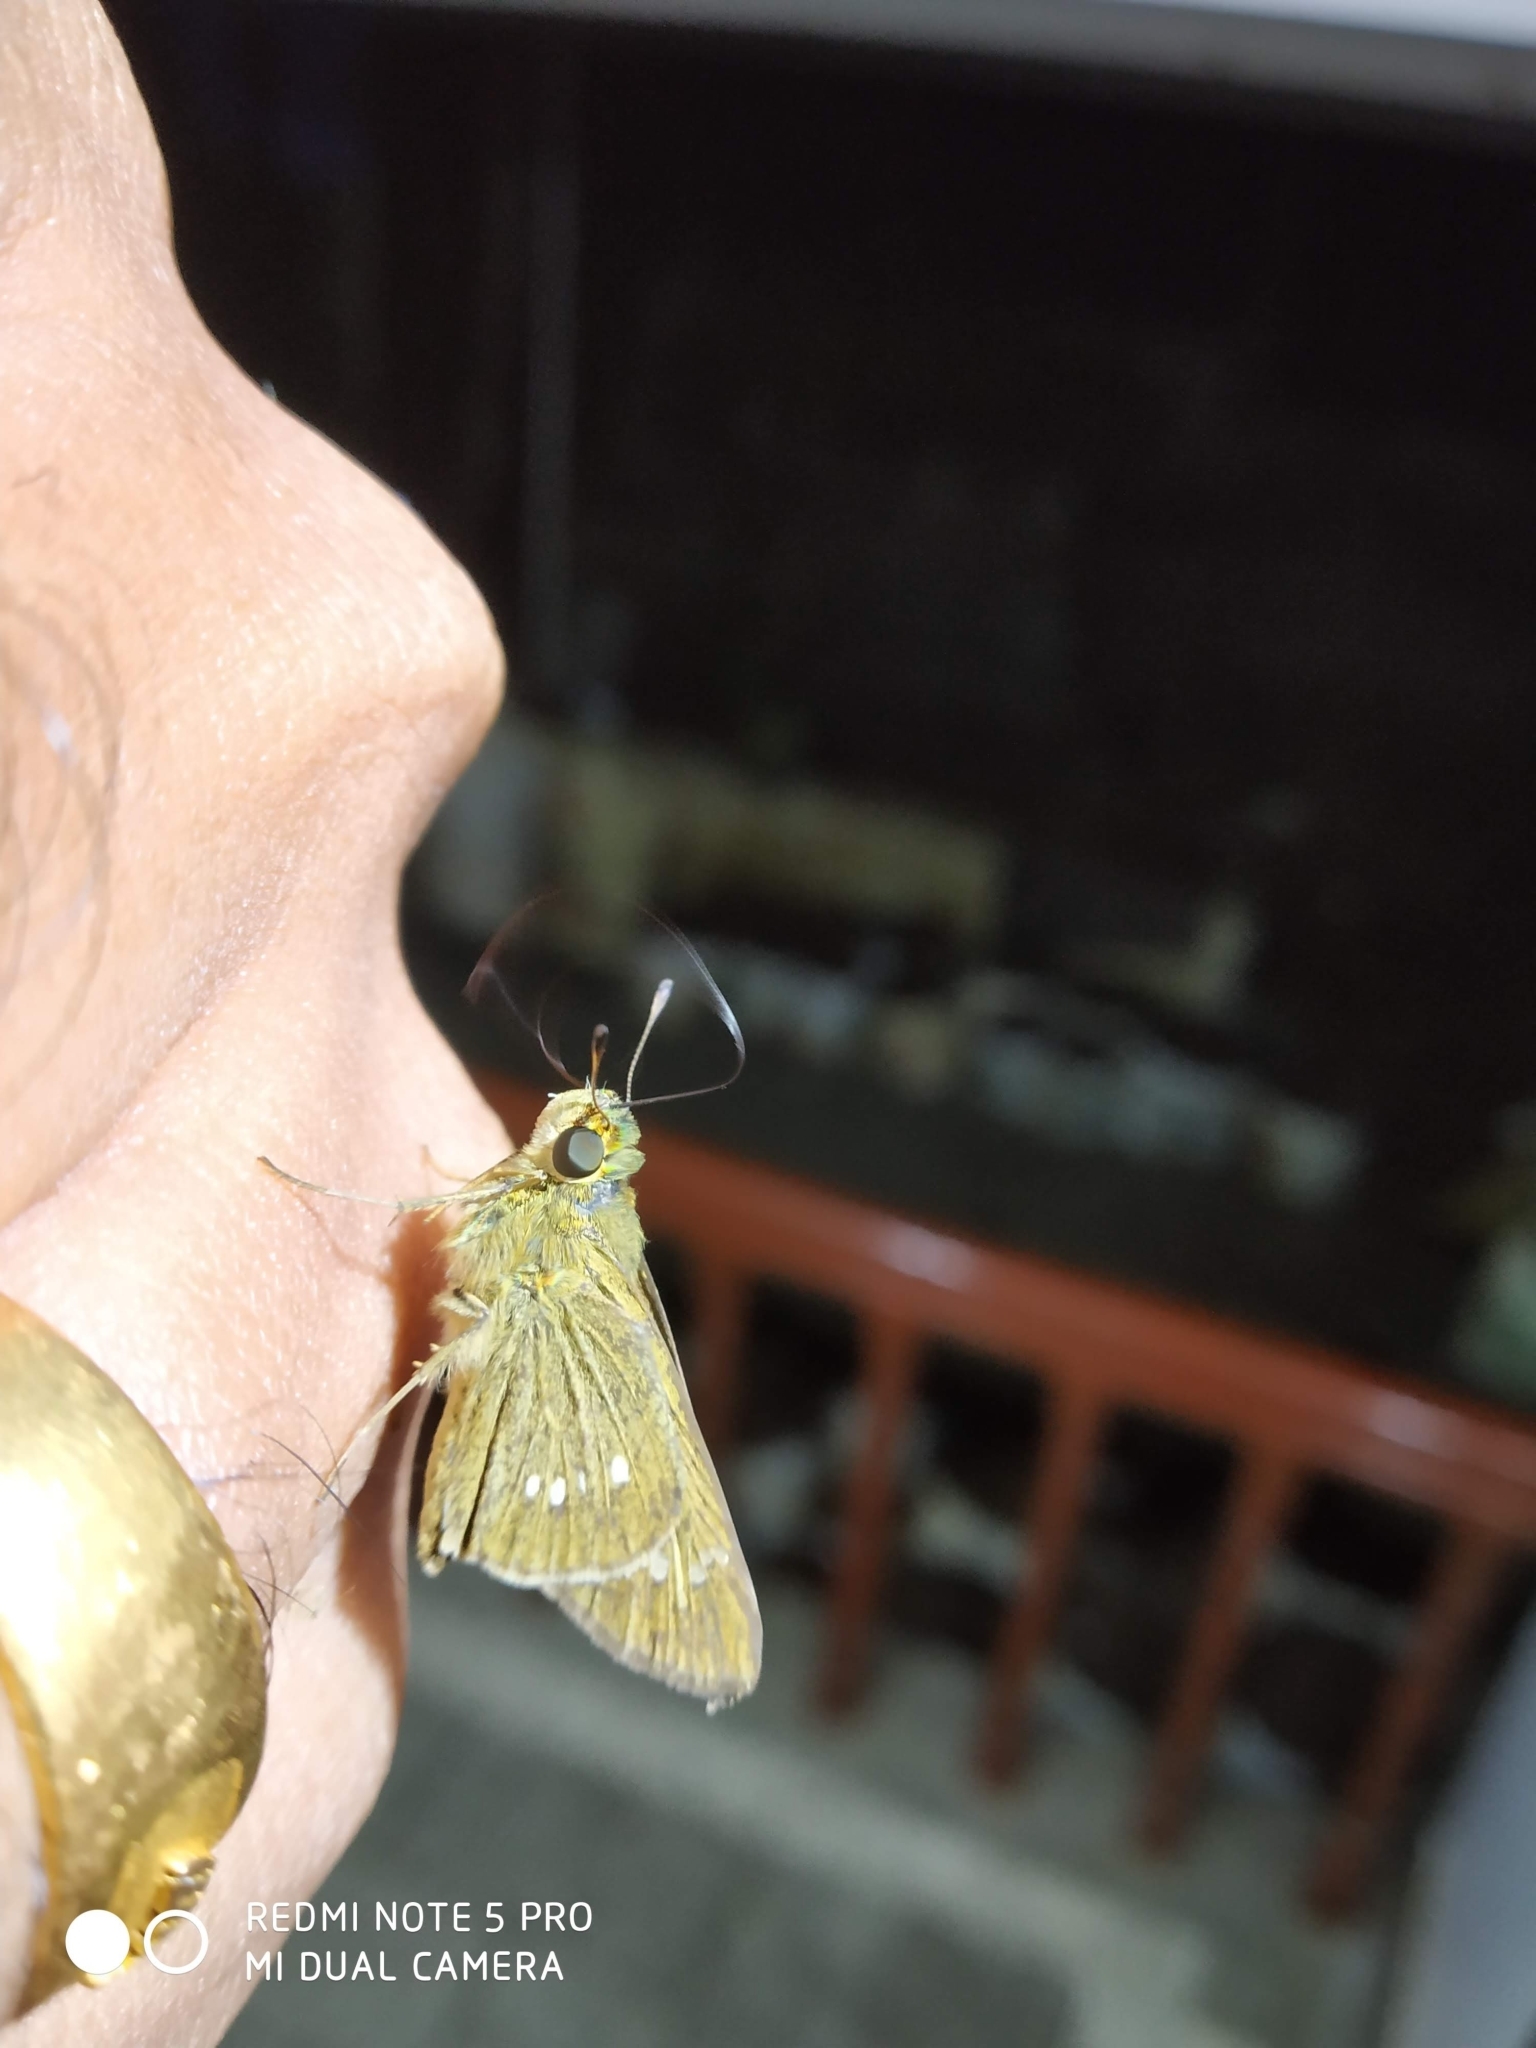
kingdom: Animalia
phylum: Arthropoda
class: Insecta
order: Lepidoptera
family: Hesperiidae
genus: Borbo
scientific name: Borbo cinnara
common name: Formosan swift
